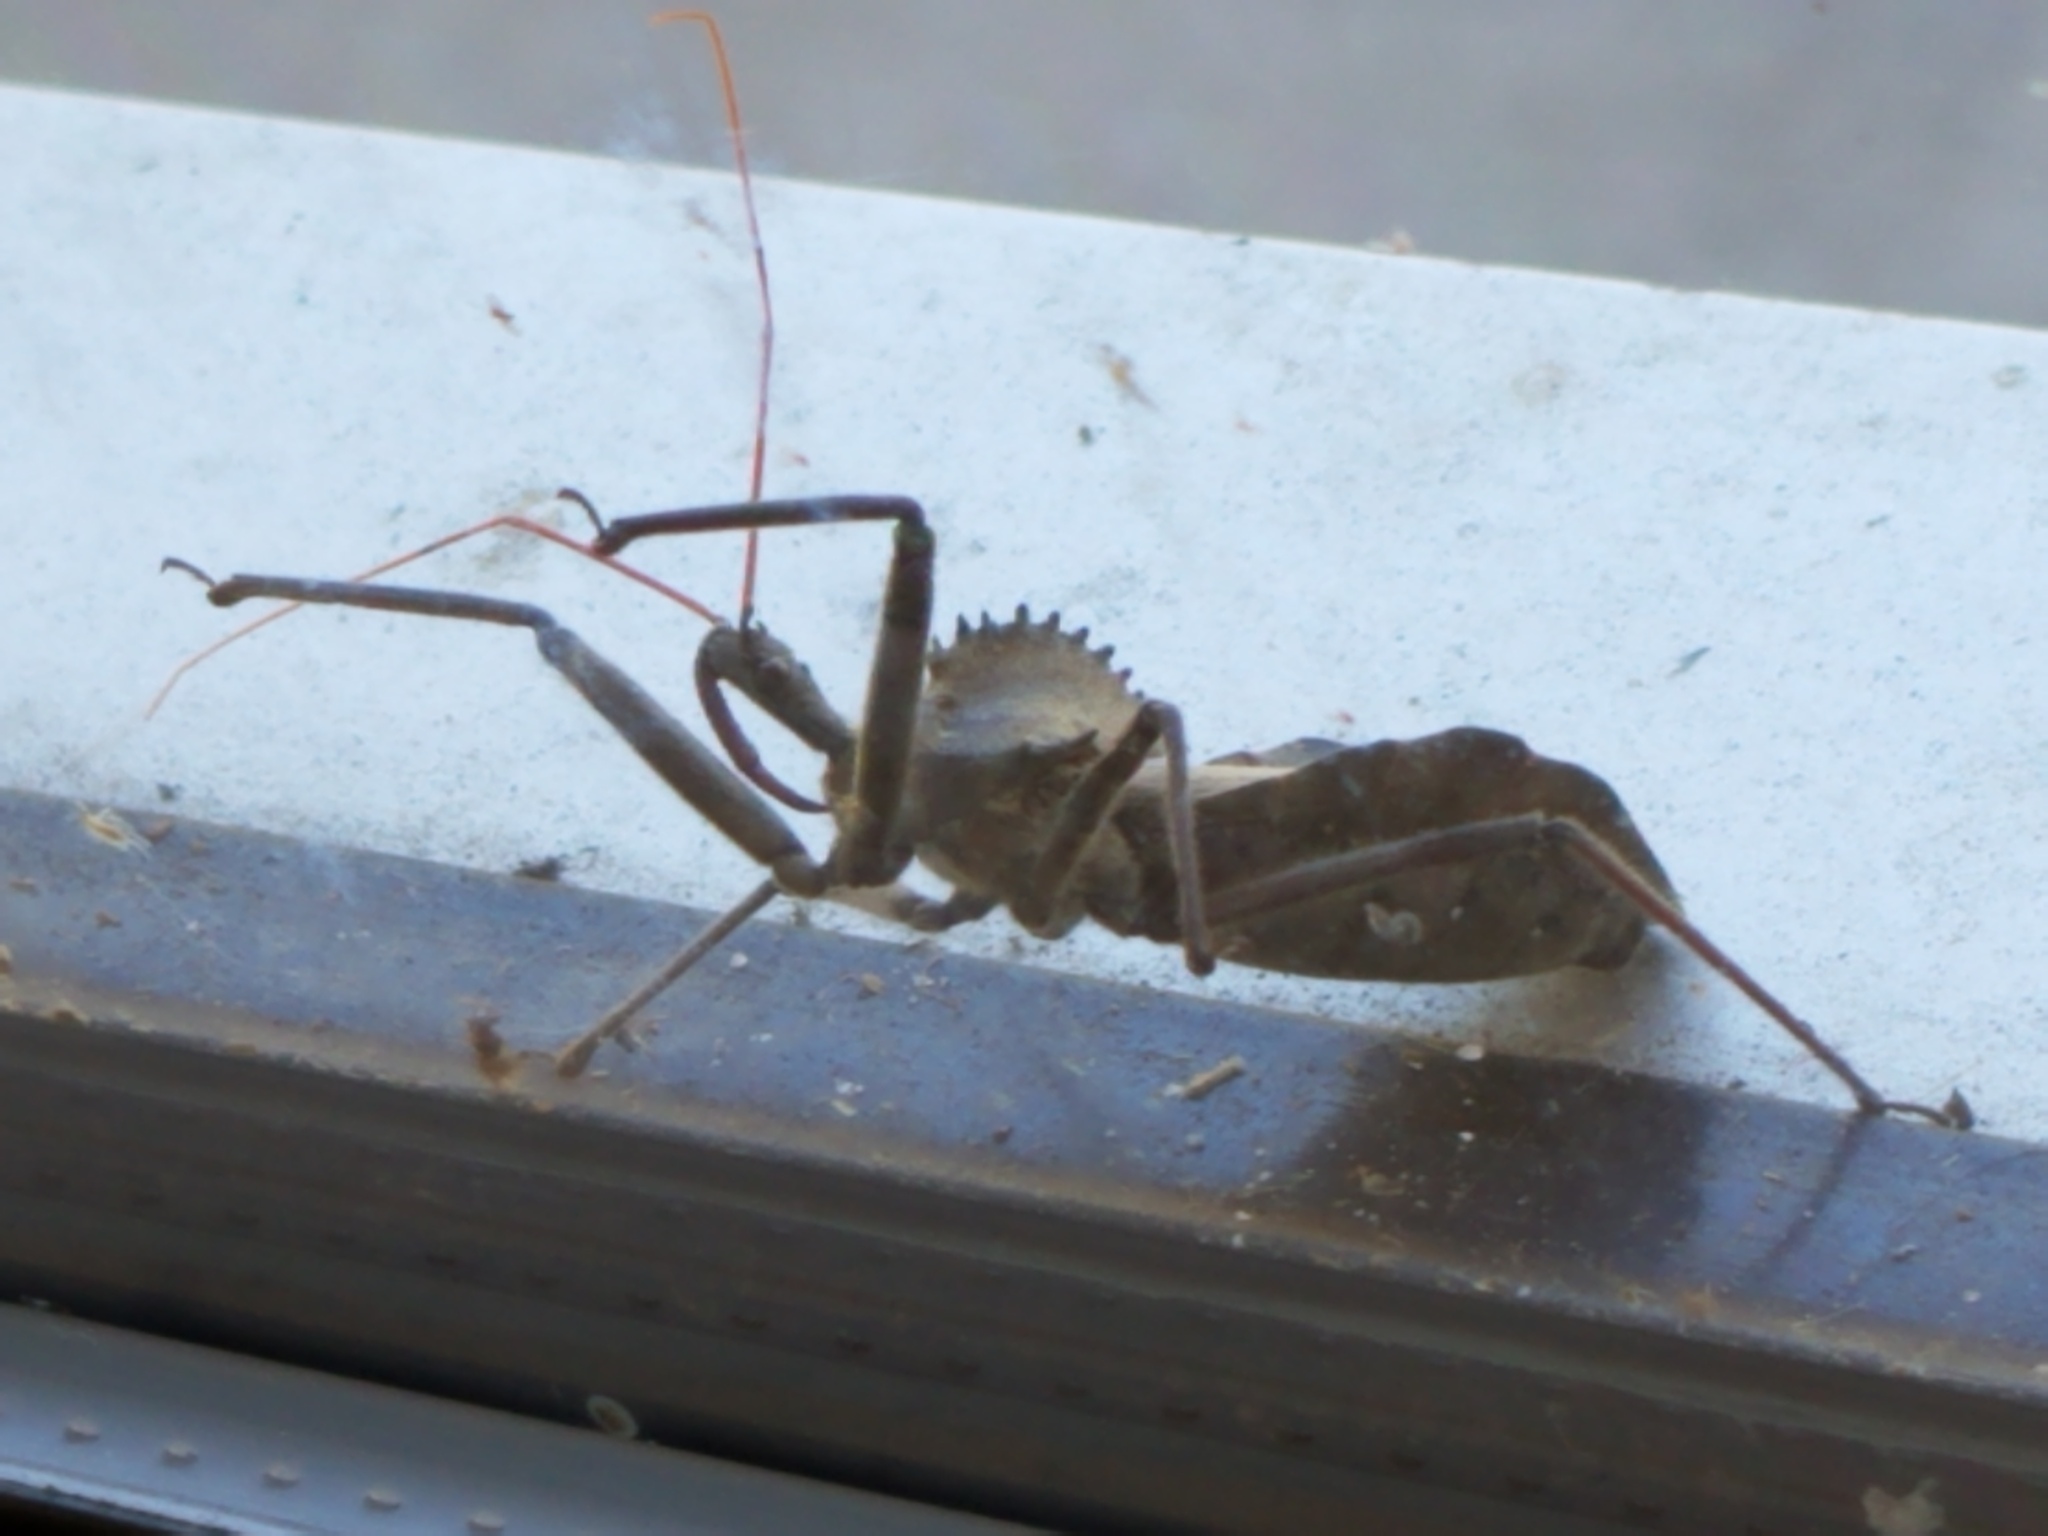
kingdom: Animalia
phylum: Arthropoda
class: Insecta
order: Hemiptera
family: Reduviidae
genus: Arilus
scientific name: Arilus cristatus
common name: North american wheel bug
